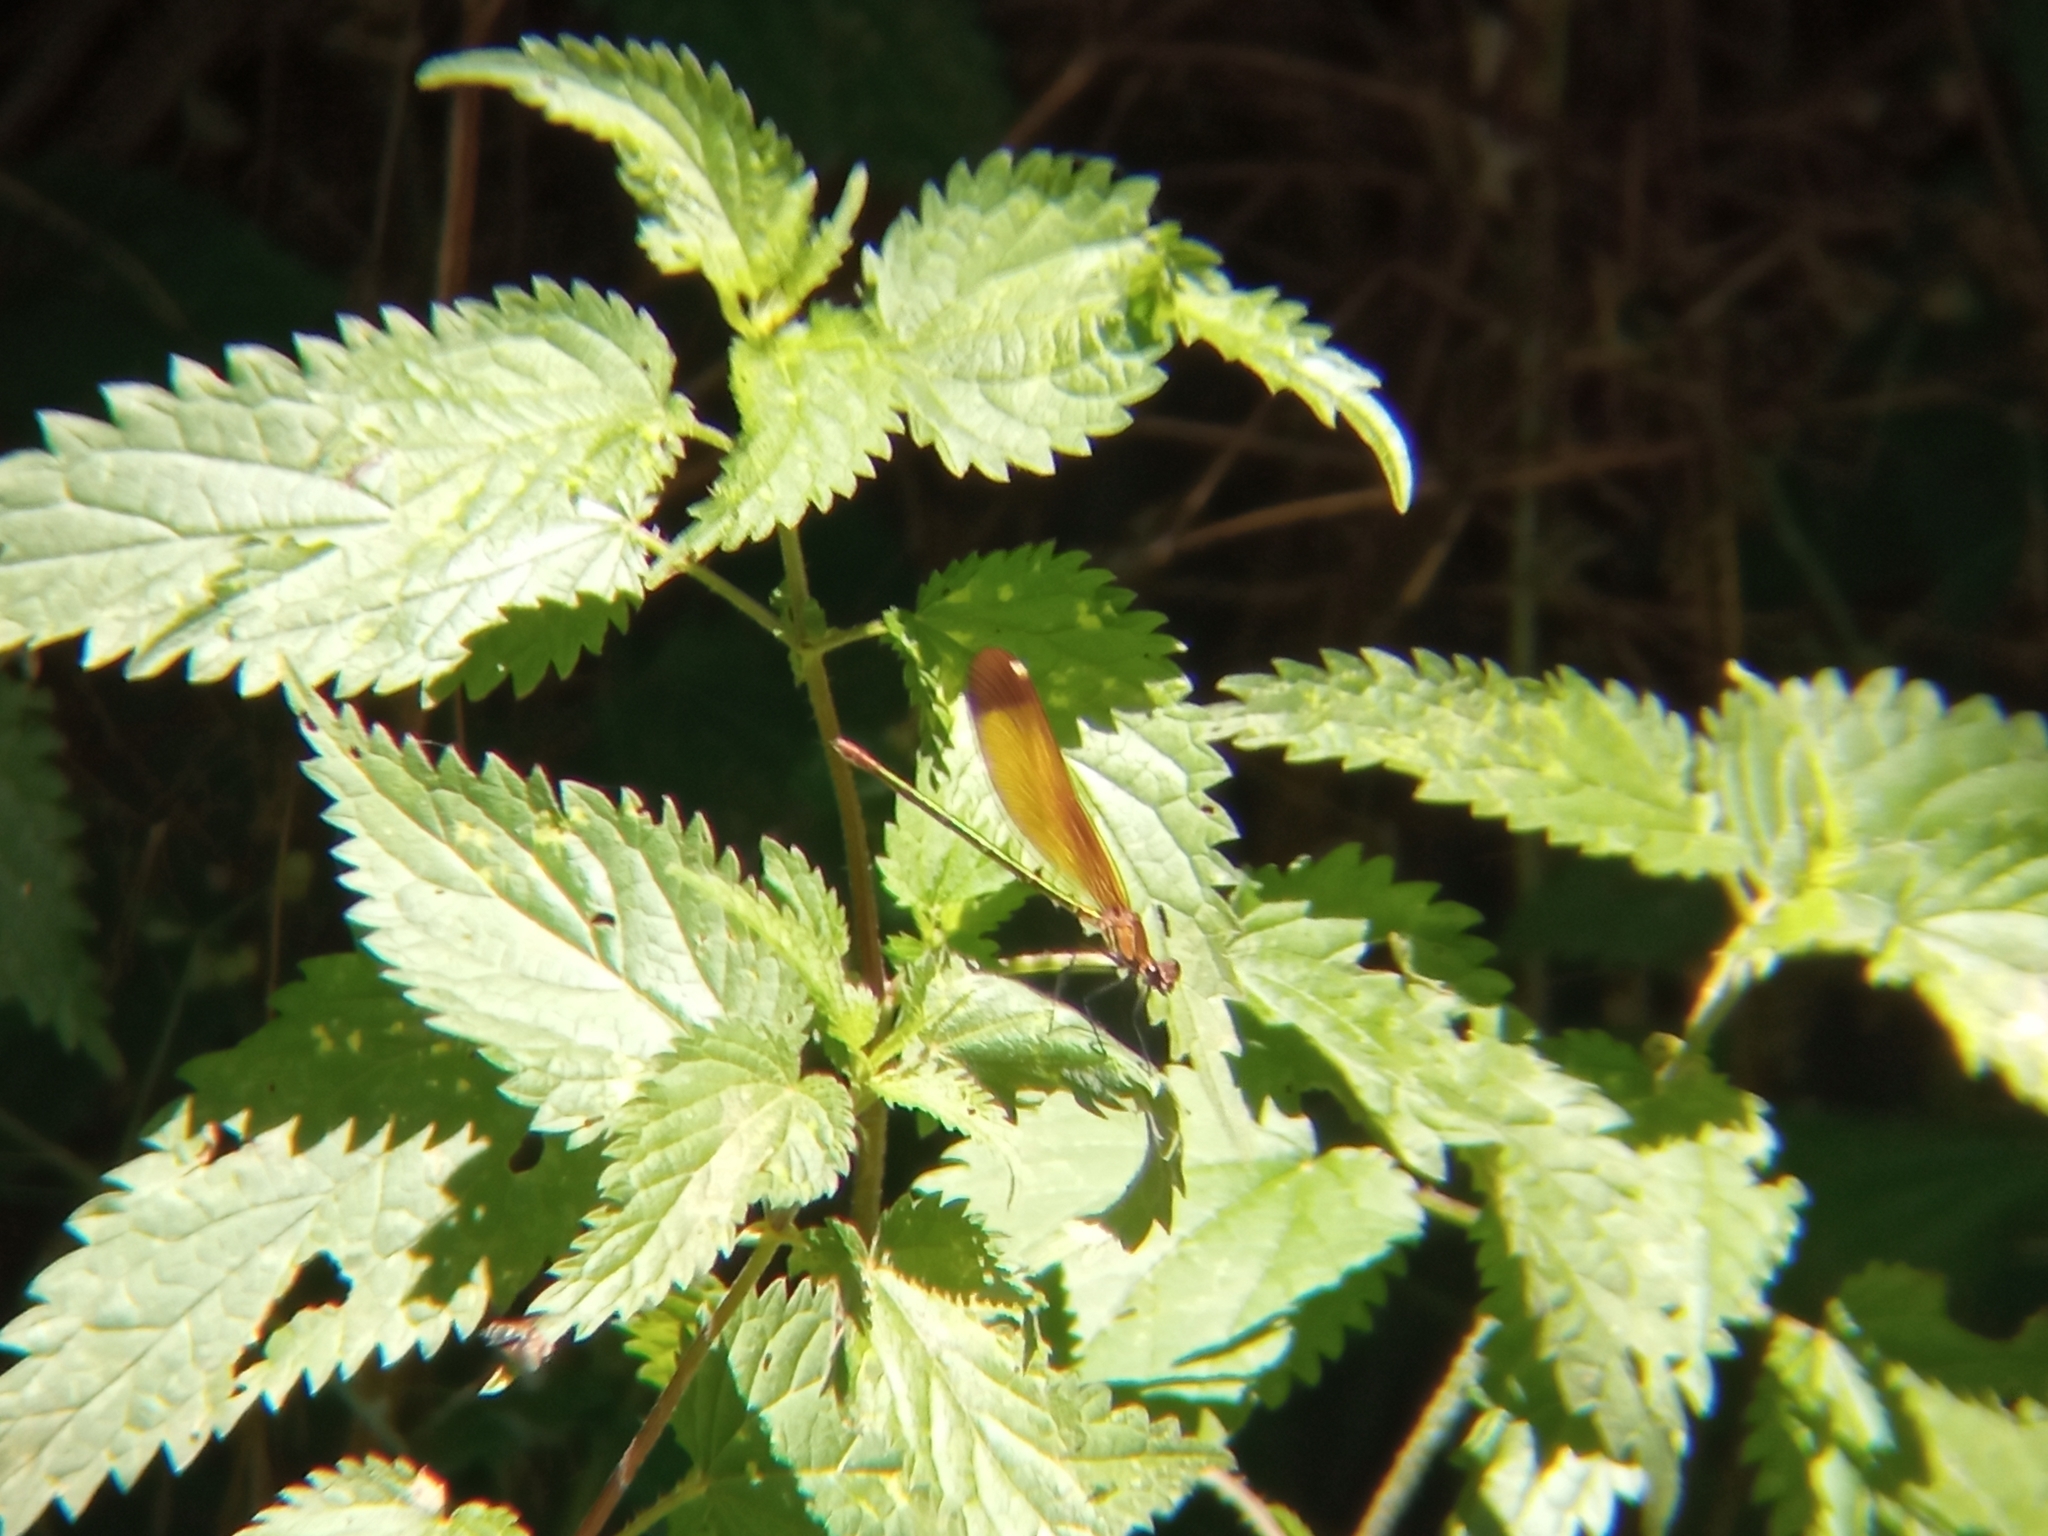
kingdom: Animalia
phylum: Arthropoda
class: Insecta
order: Odonata
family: Calopterygidae
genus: Calopteryx
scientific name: Calopteryx haemorrhoidalis
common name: Copper demoiselle
